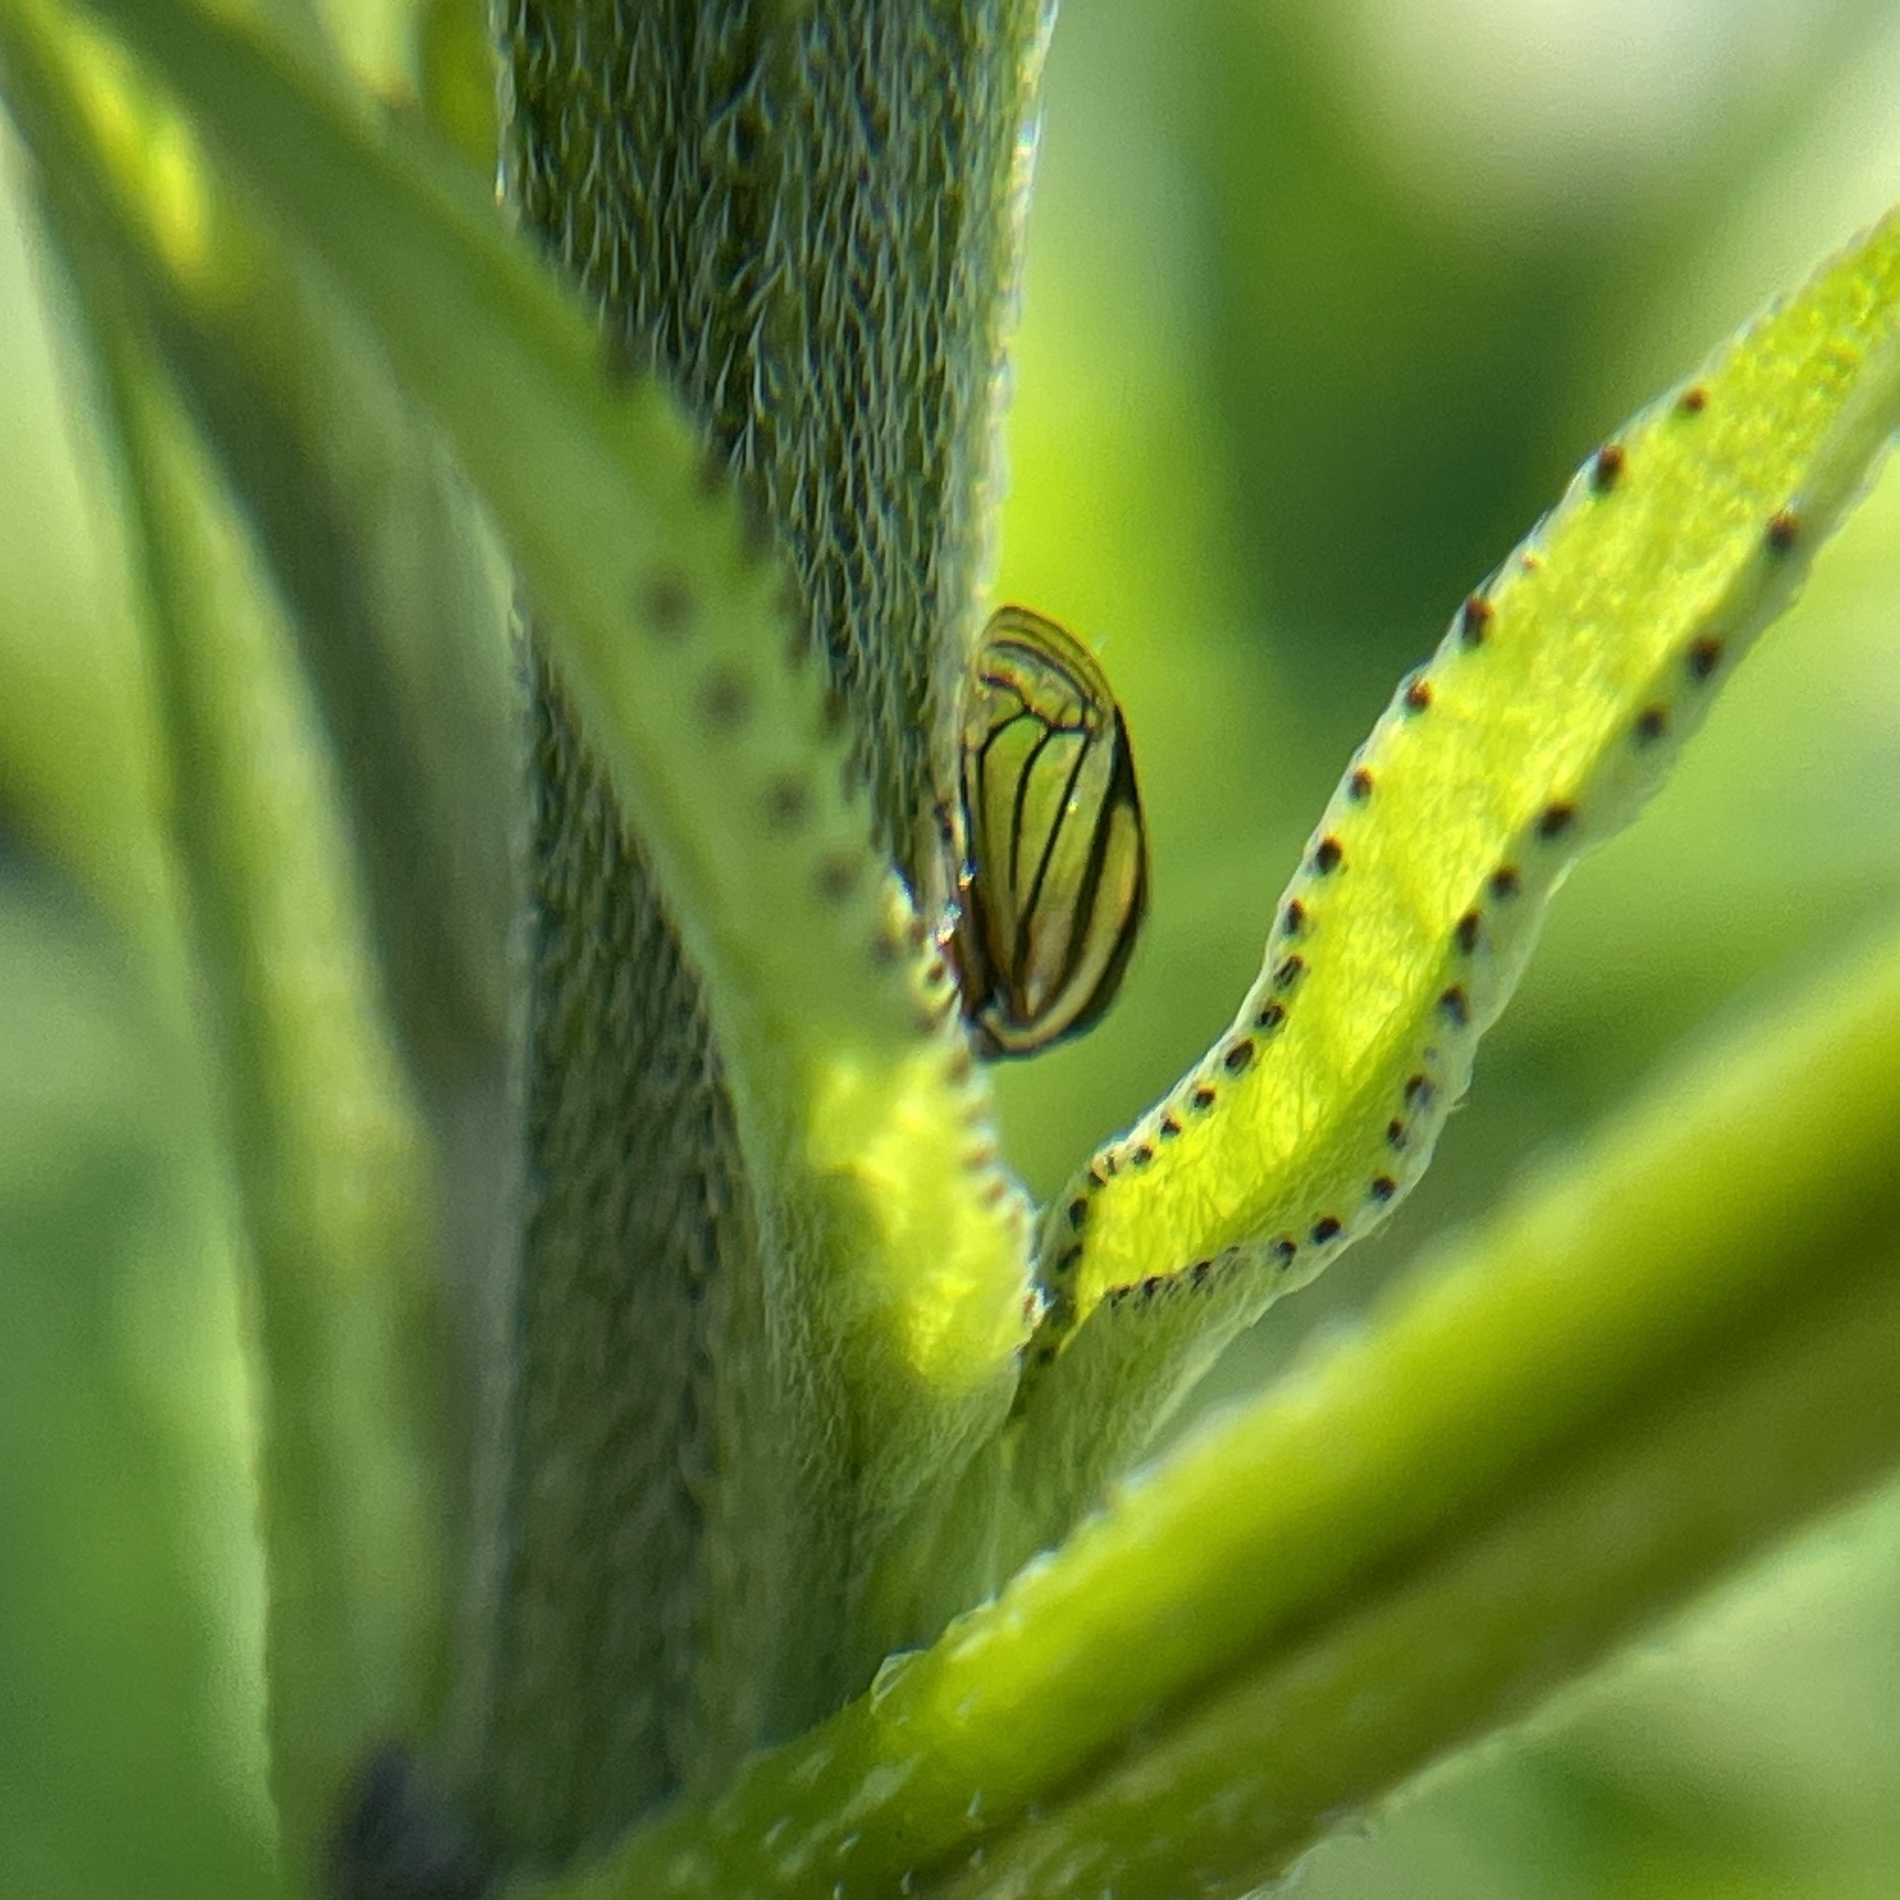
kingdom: Animalia
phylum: Arthropoda
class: Insecta
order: Hemiptera
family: Membracidae
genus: Acutalis
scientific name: Acutalis tartarea
